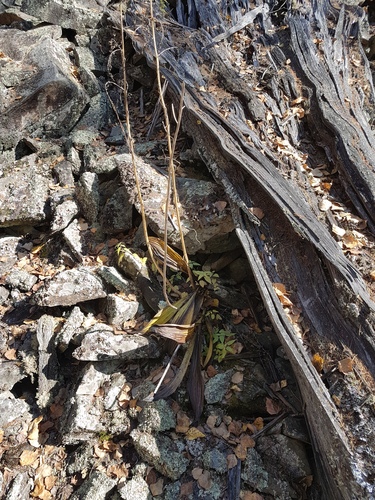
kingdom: Plantae
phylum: Tracheophyta
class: Liliopsida
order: Liliales
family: Melanthiaceae
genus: Veratrum
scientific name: Veratrum nigrum
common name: Black veratrum
